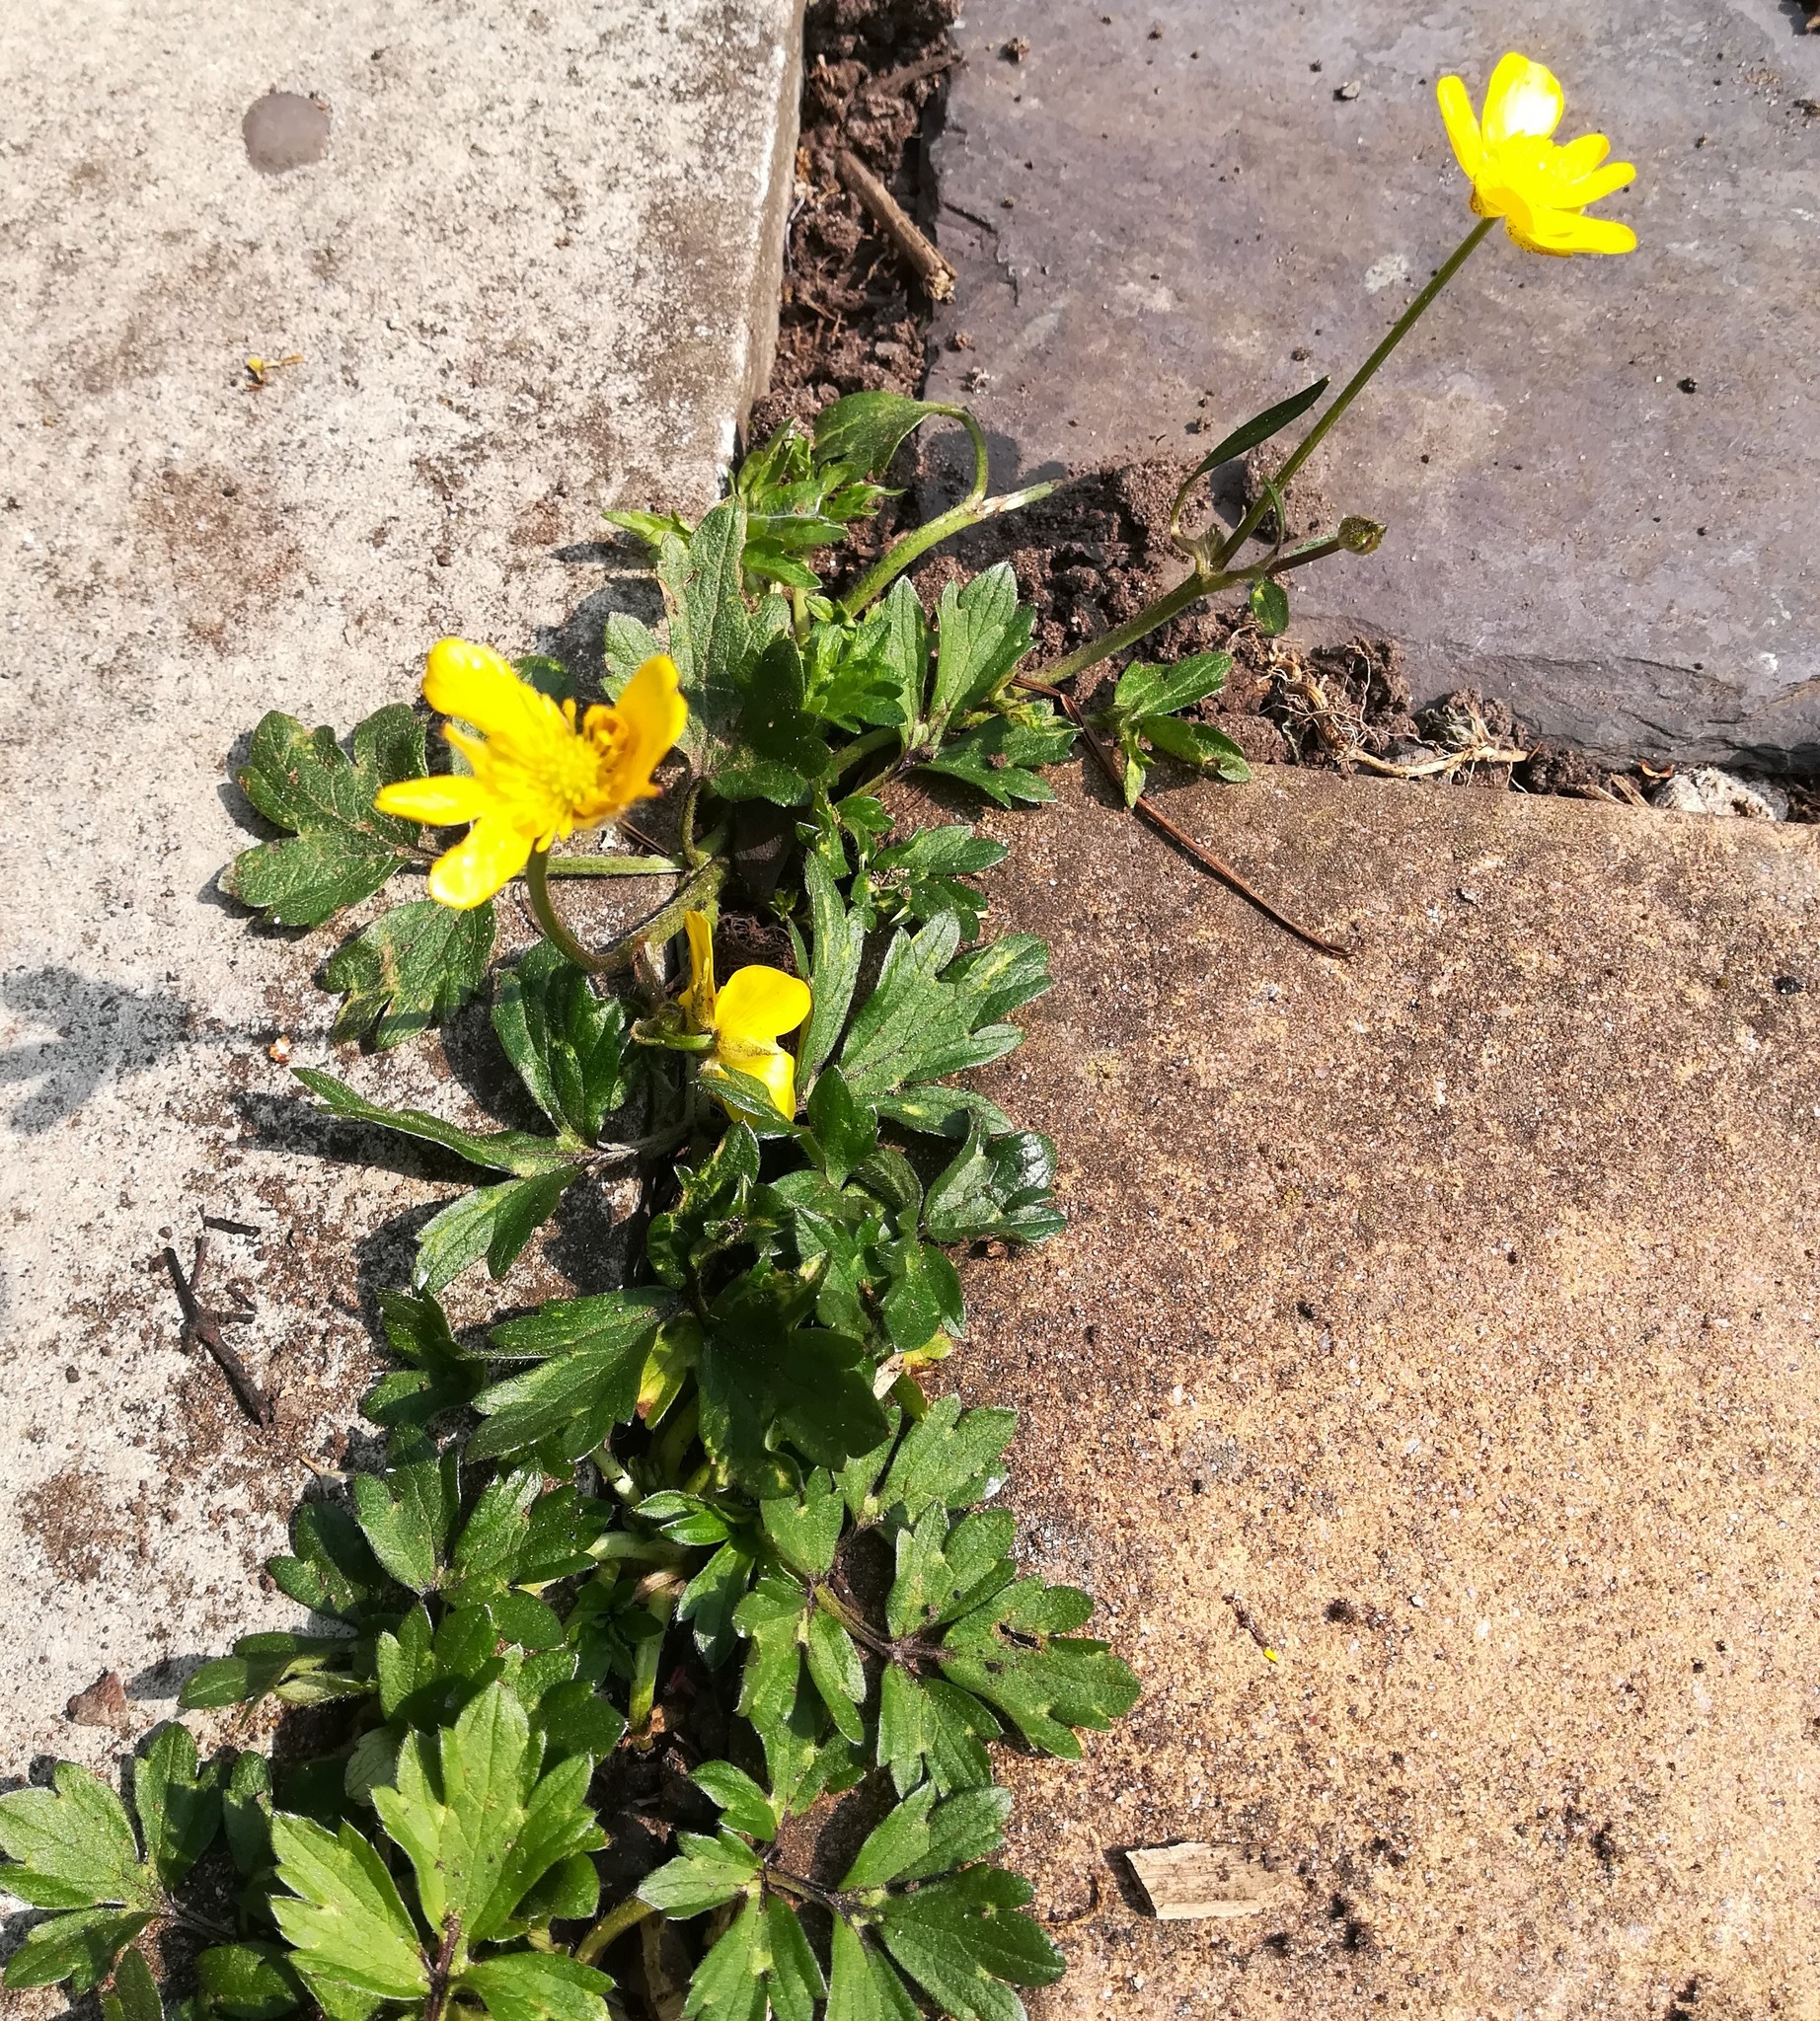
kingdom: Plantae
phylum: Tracheophyta
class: Magnoliopsida
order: Ranunculales
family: Ranunculaceae
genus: Ranunculus
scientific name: Ranunculus repens
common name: Creeping buttercup
